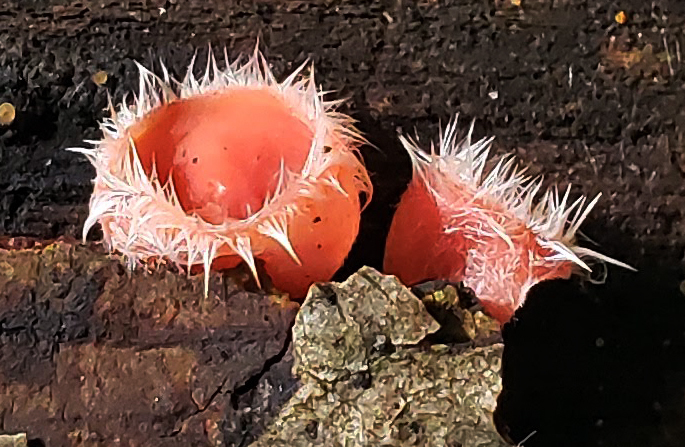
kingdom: Fungi
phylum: Ascomycota
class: Pezizomycetes
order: Pezizales
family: Sarcoscyphaceae
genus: Microstoma
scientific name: Microstoma floccosum
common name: Pink fringed faery cup
